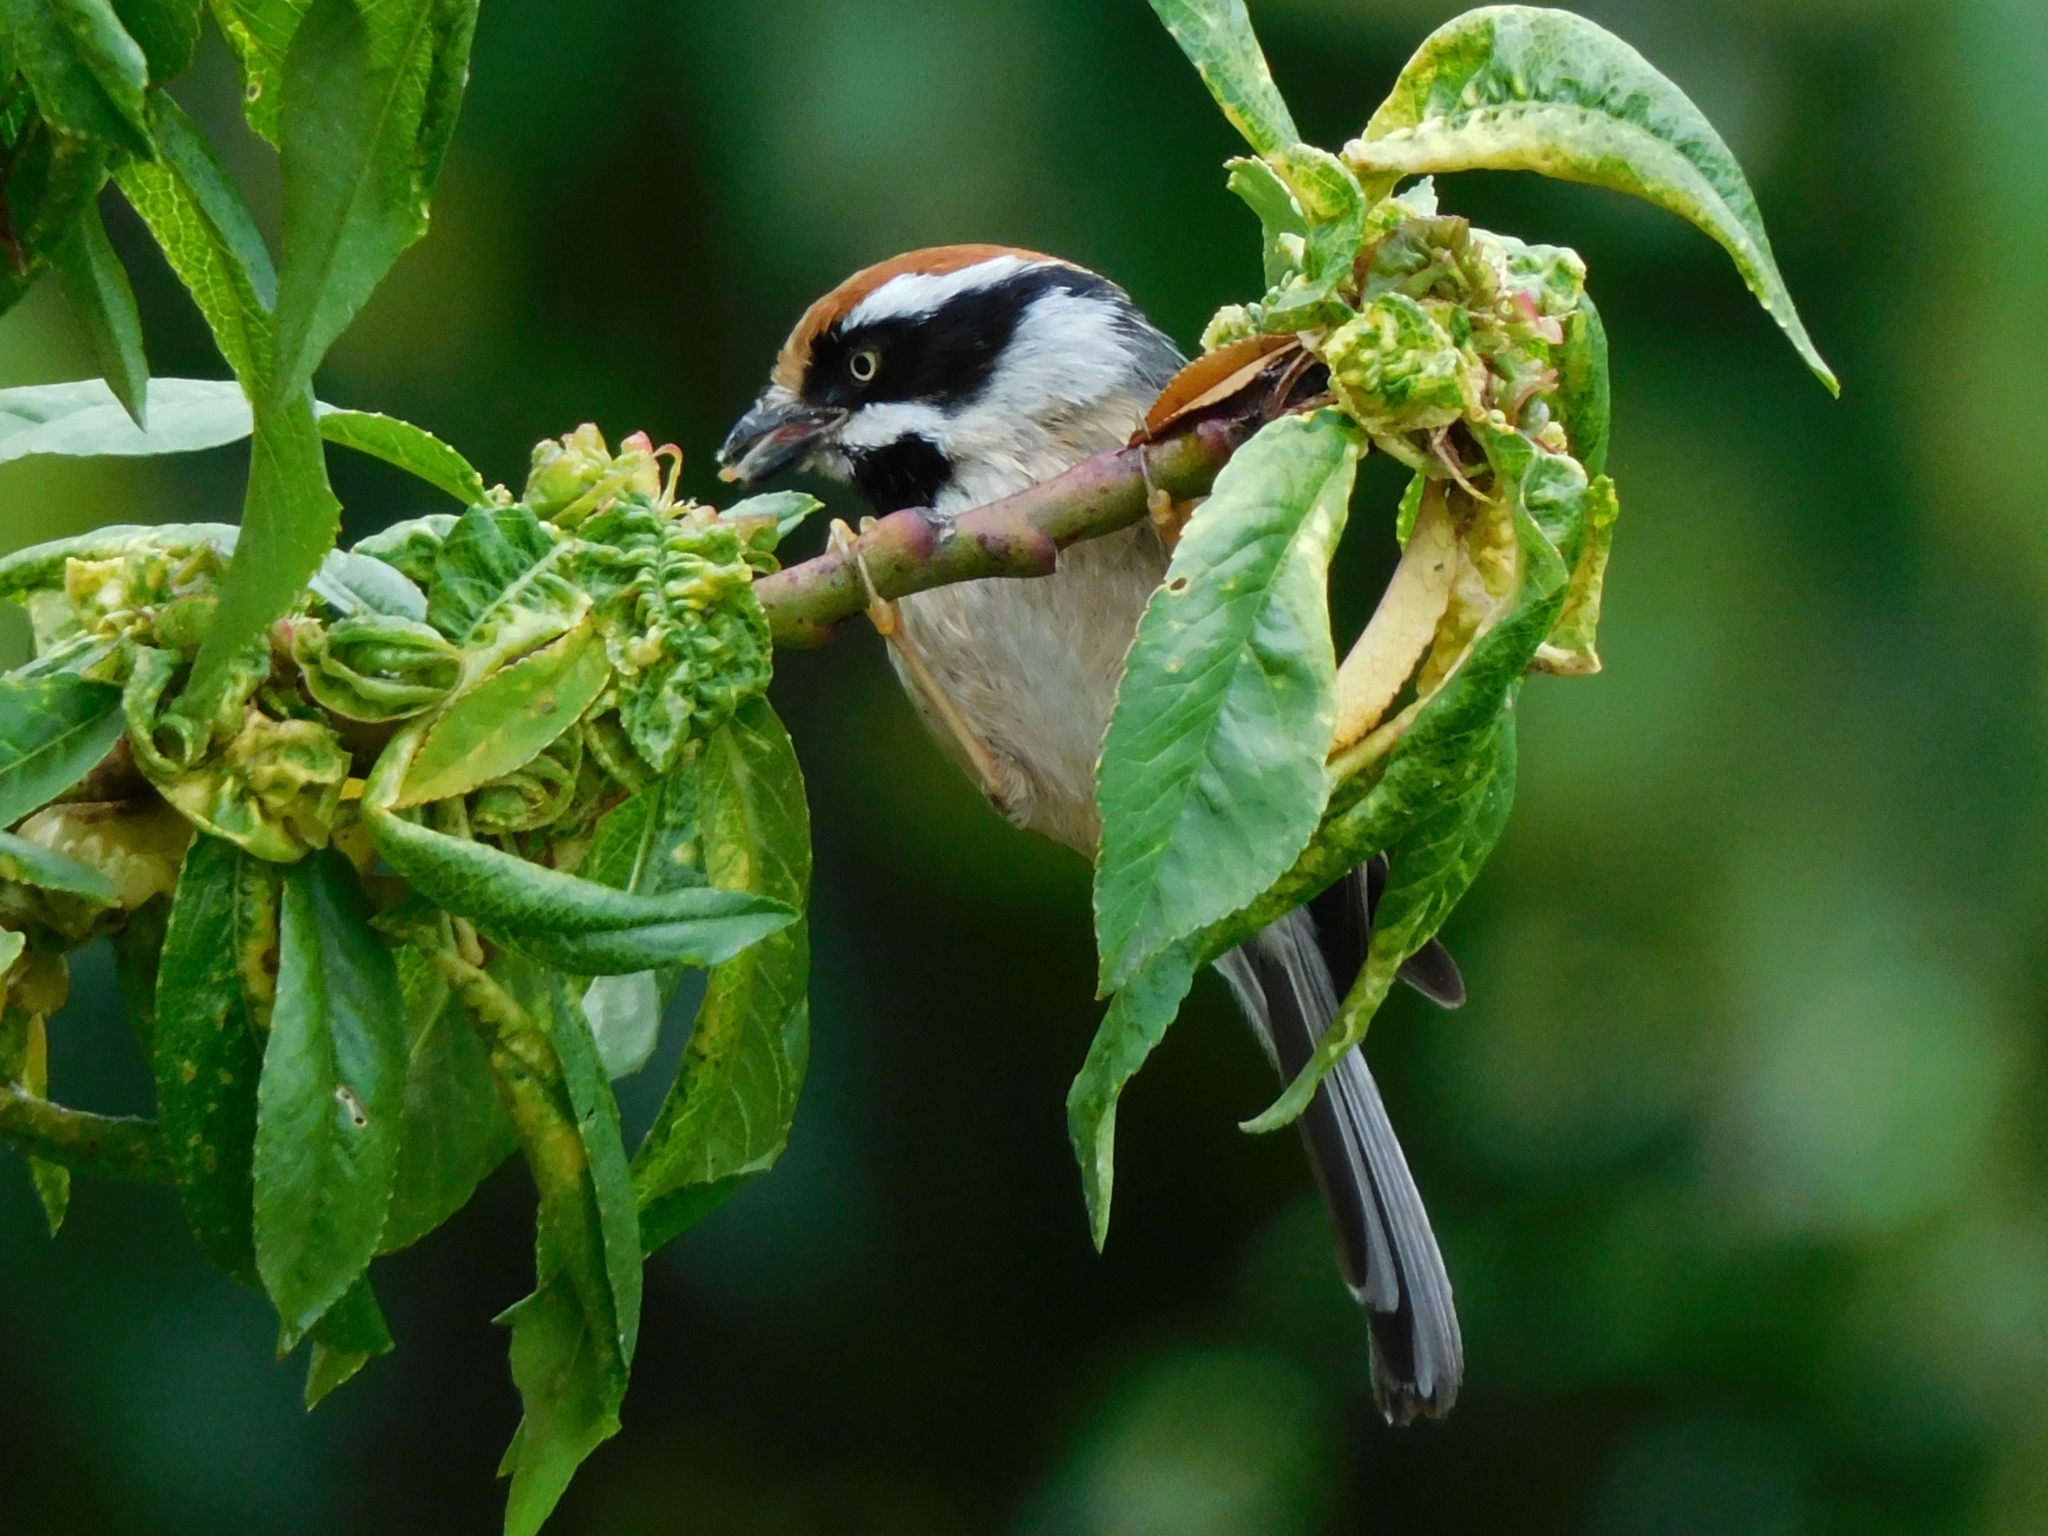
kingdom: Animalia
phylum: Chordata
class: Aves
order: Passeriformes
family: Aegithalidae
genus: Aegithalos
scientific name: Aegithalos concinnus
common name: Black-throated bushtit
